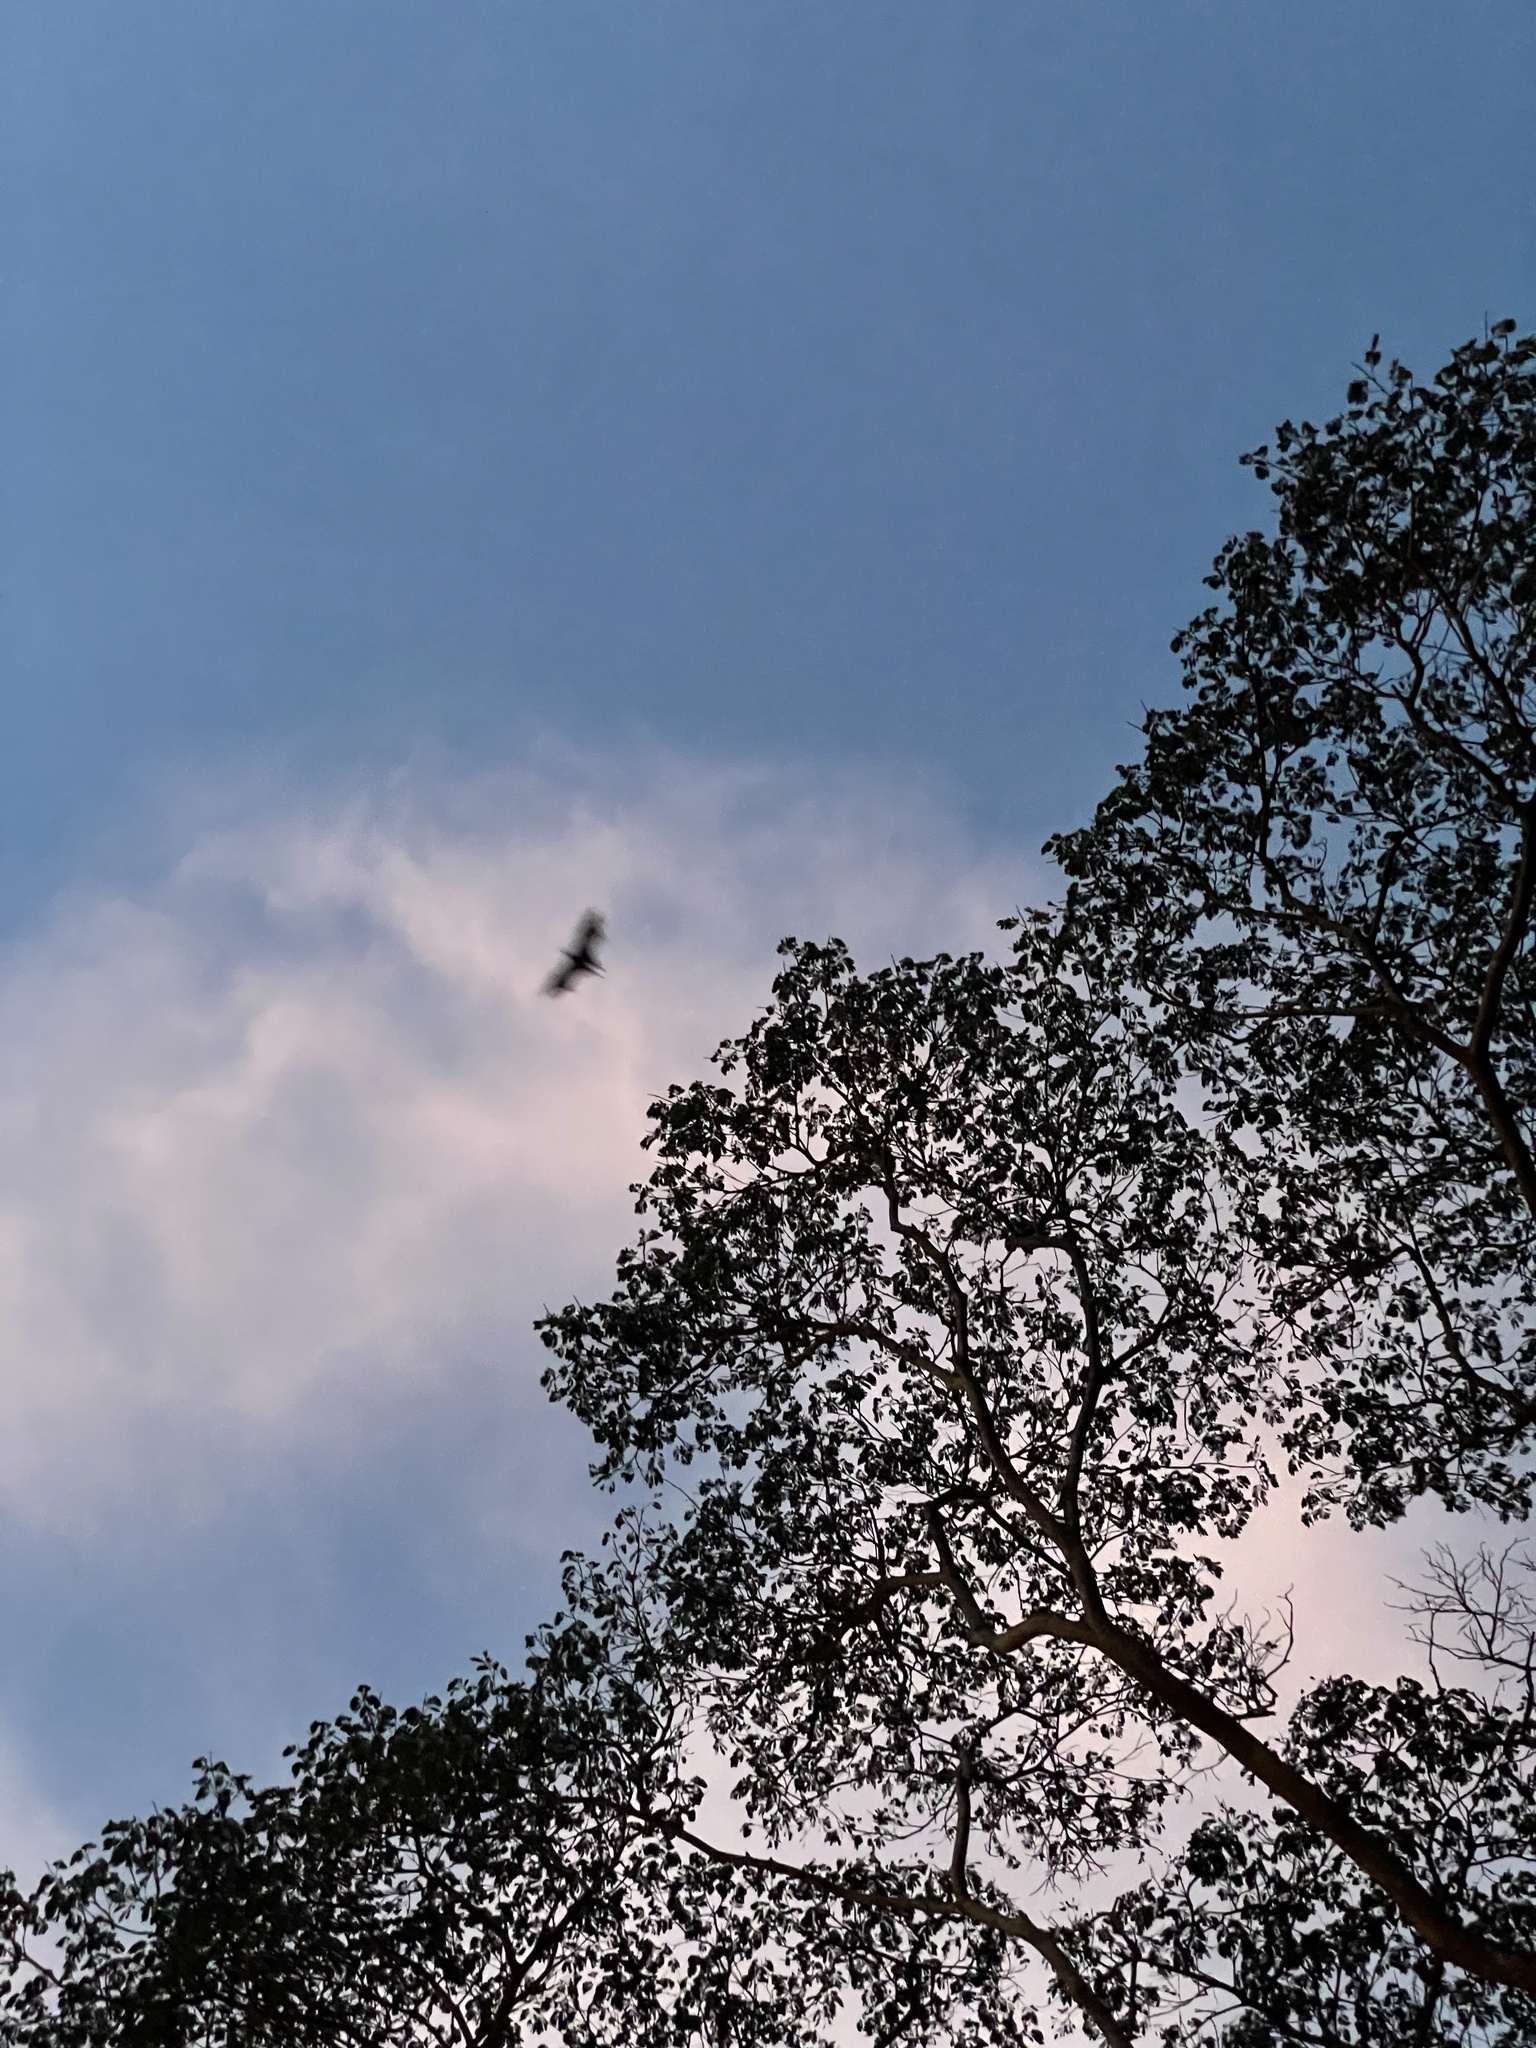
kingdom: Animalia
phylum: Chordata
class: Mammalia
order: Chiroptera
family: Pteropodidae
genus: Pteropus
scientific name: Pteropus vampyrus
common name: Large flying fox
